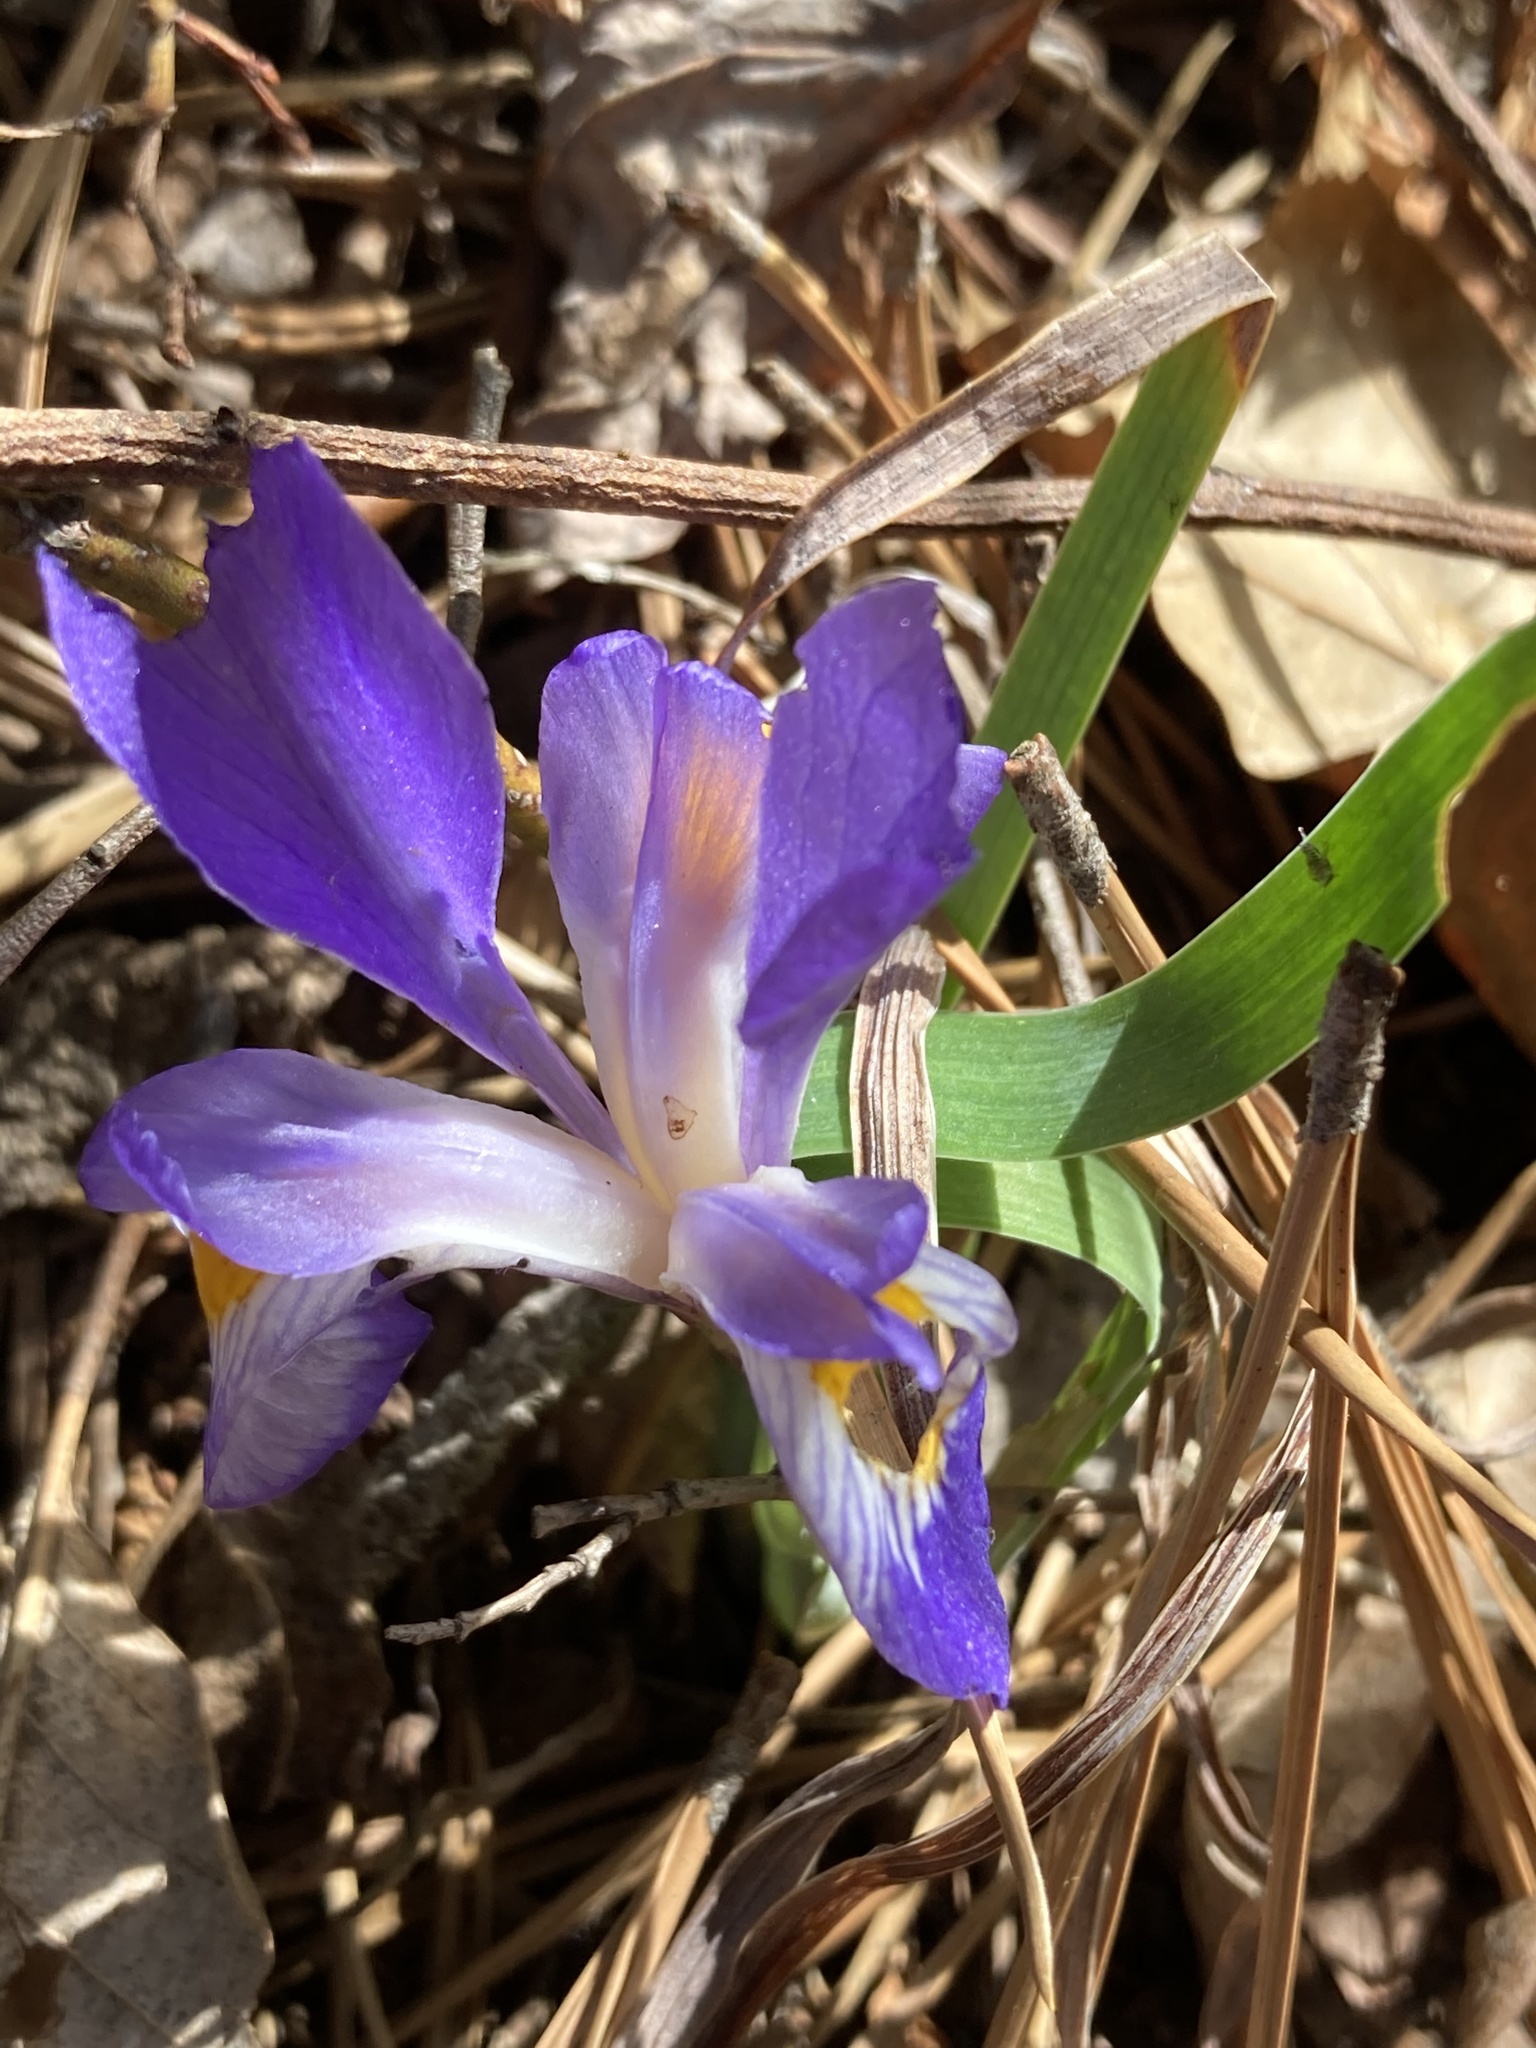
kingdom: Plantae
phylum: Tracheophyta
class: Liliopsida
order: Asparagales
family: Iridaceae
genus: Iris
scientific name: Iris verna
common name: Dwarf iris
